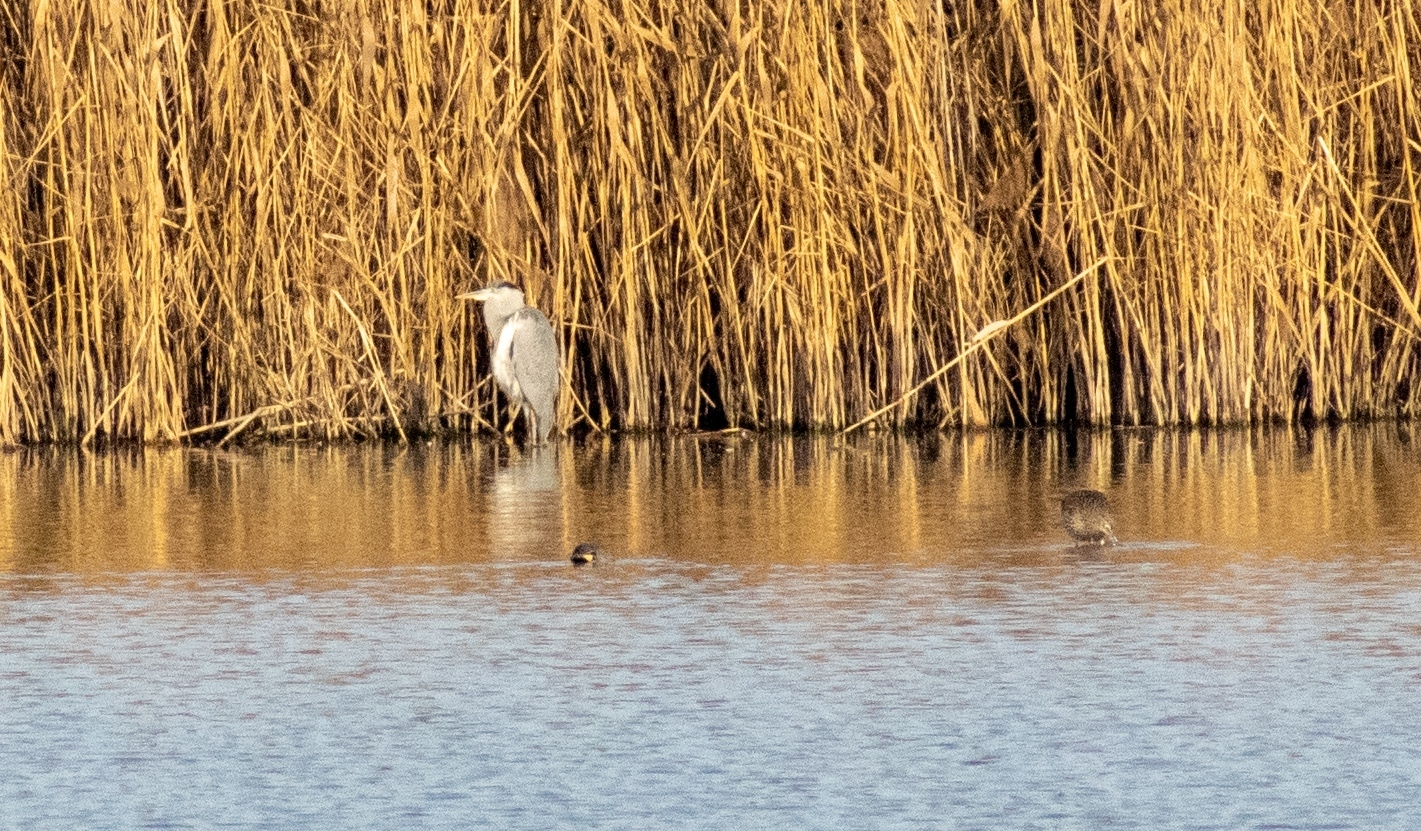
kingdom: Animalia
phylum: Chordata
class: Aves
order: Anseriformes
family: Anatidae
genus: Anas
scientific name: Anas crecca
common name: Eurasian teal
